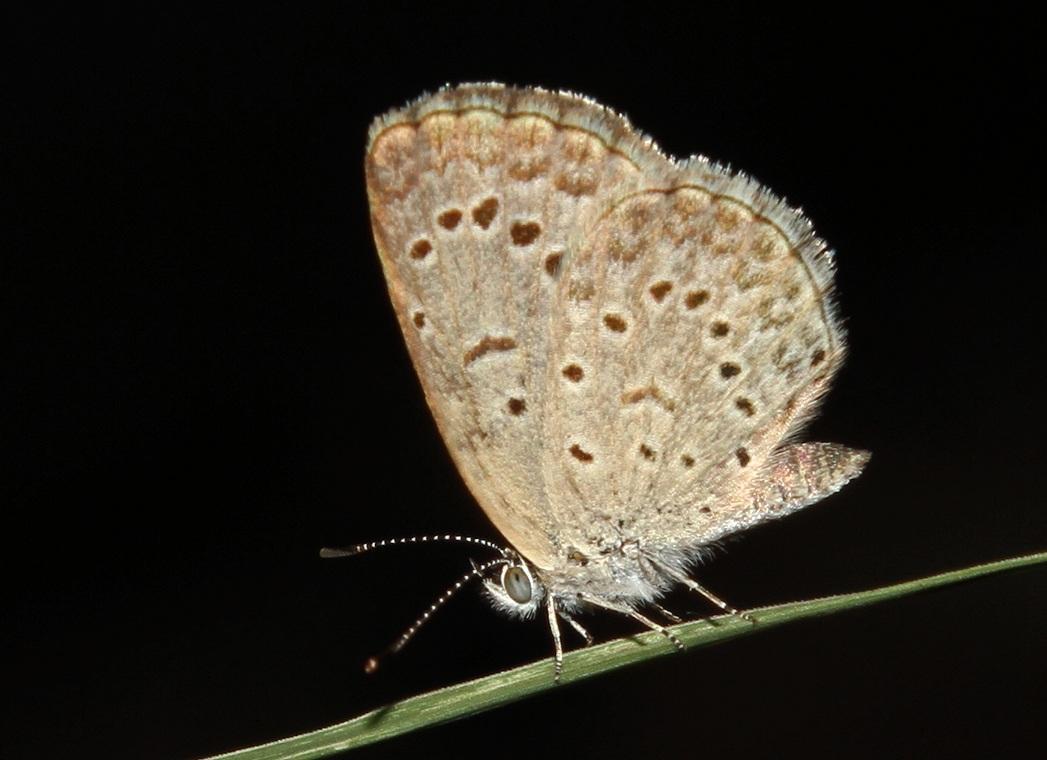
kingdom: Animalia
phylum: Arthropoda
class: Insecta
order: Lepidoptera
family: Lycaenidae
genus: Zizeeria
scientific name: Zizeeria knysna
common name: African grass blue
